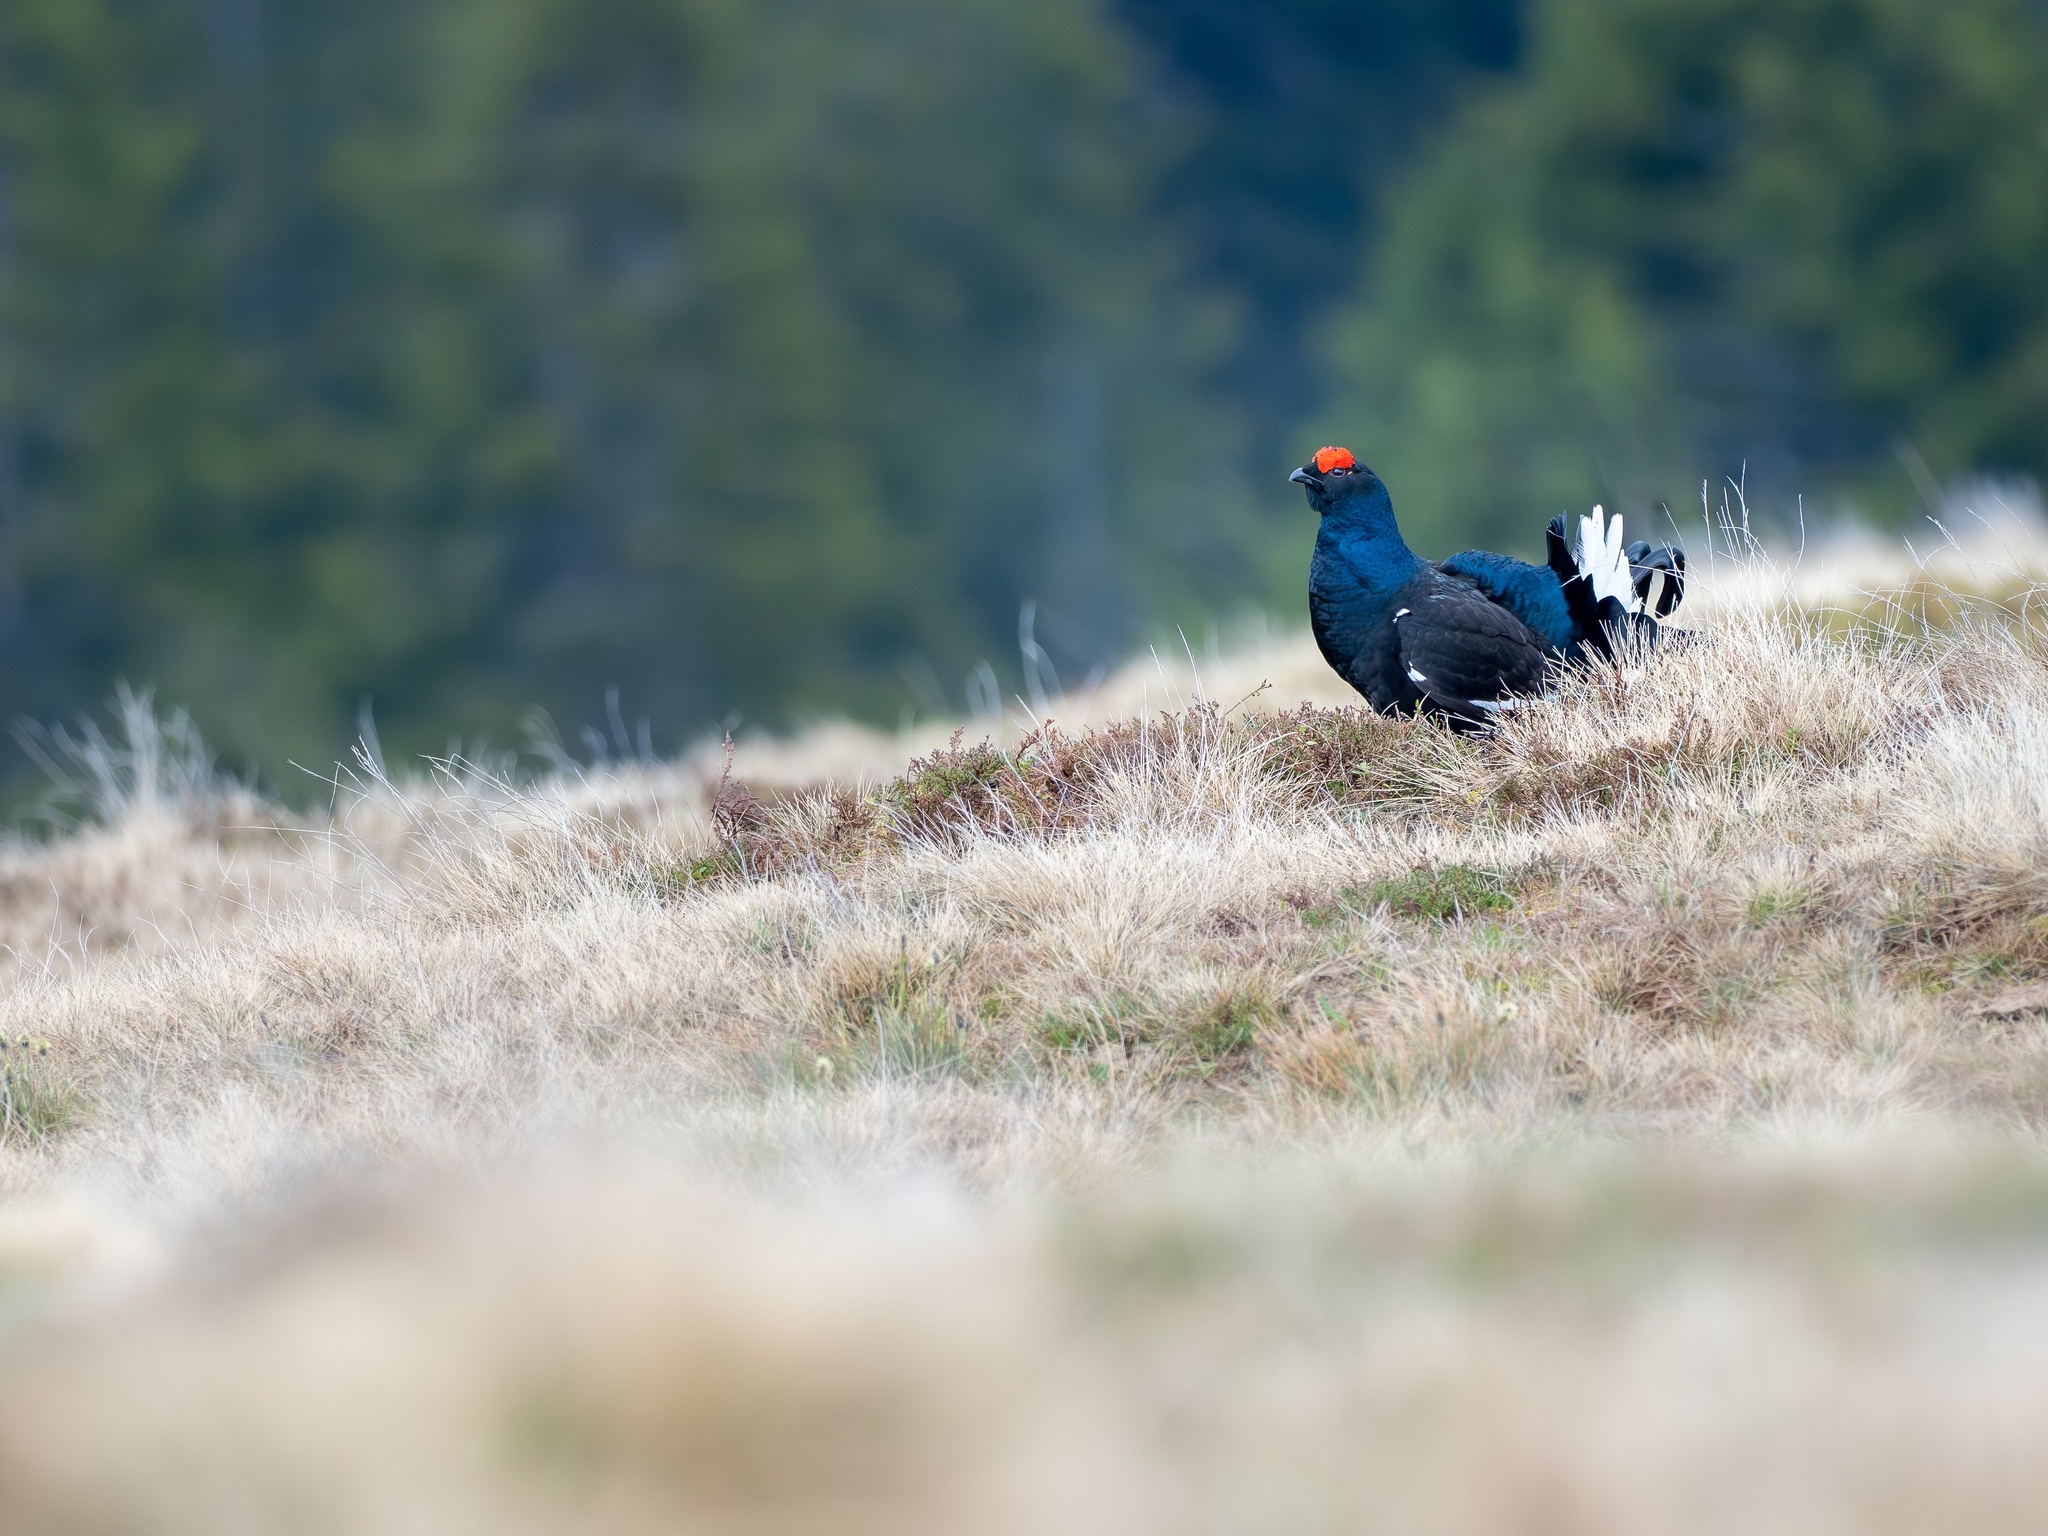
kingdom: Animalia
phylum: Chordata
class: Aves
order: Galliformes
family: Phasianidae
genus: Lyrurus
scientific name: Lyrurus tetrix
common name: Black grouse
